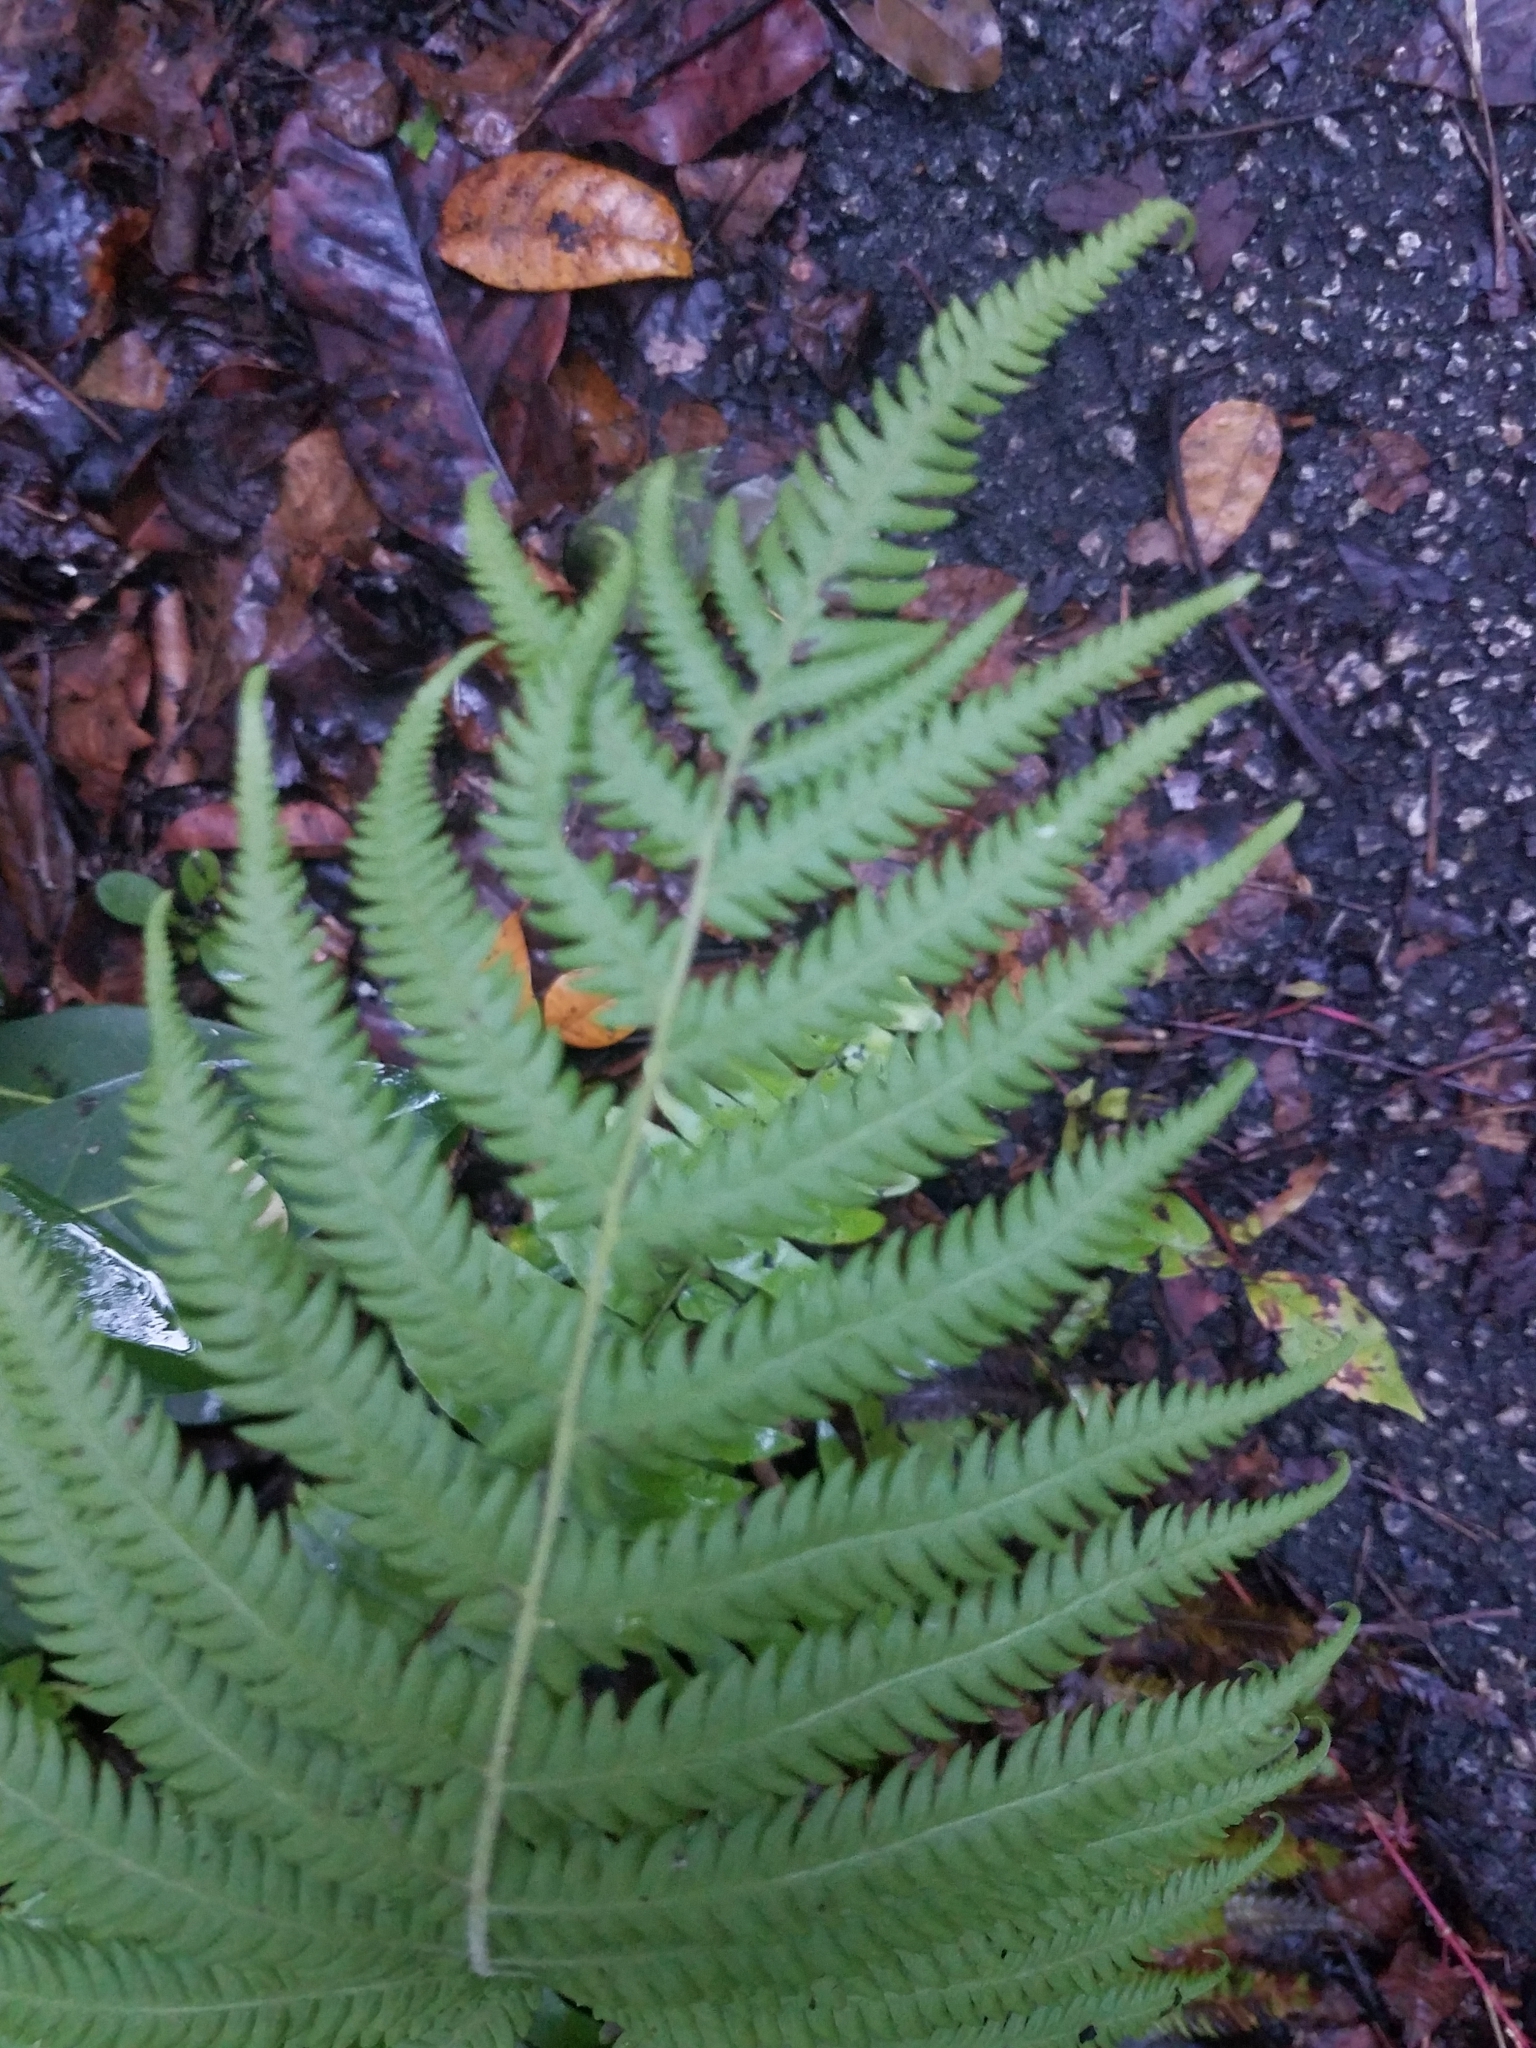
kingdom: Plantae
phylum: Tracheophyta
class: Polypodiopsida
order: Polypodiales
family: Thelypteridaceae
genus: Pelazoneuron
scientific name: Pelazoneuron kunthii
